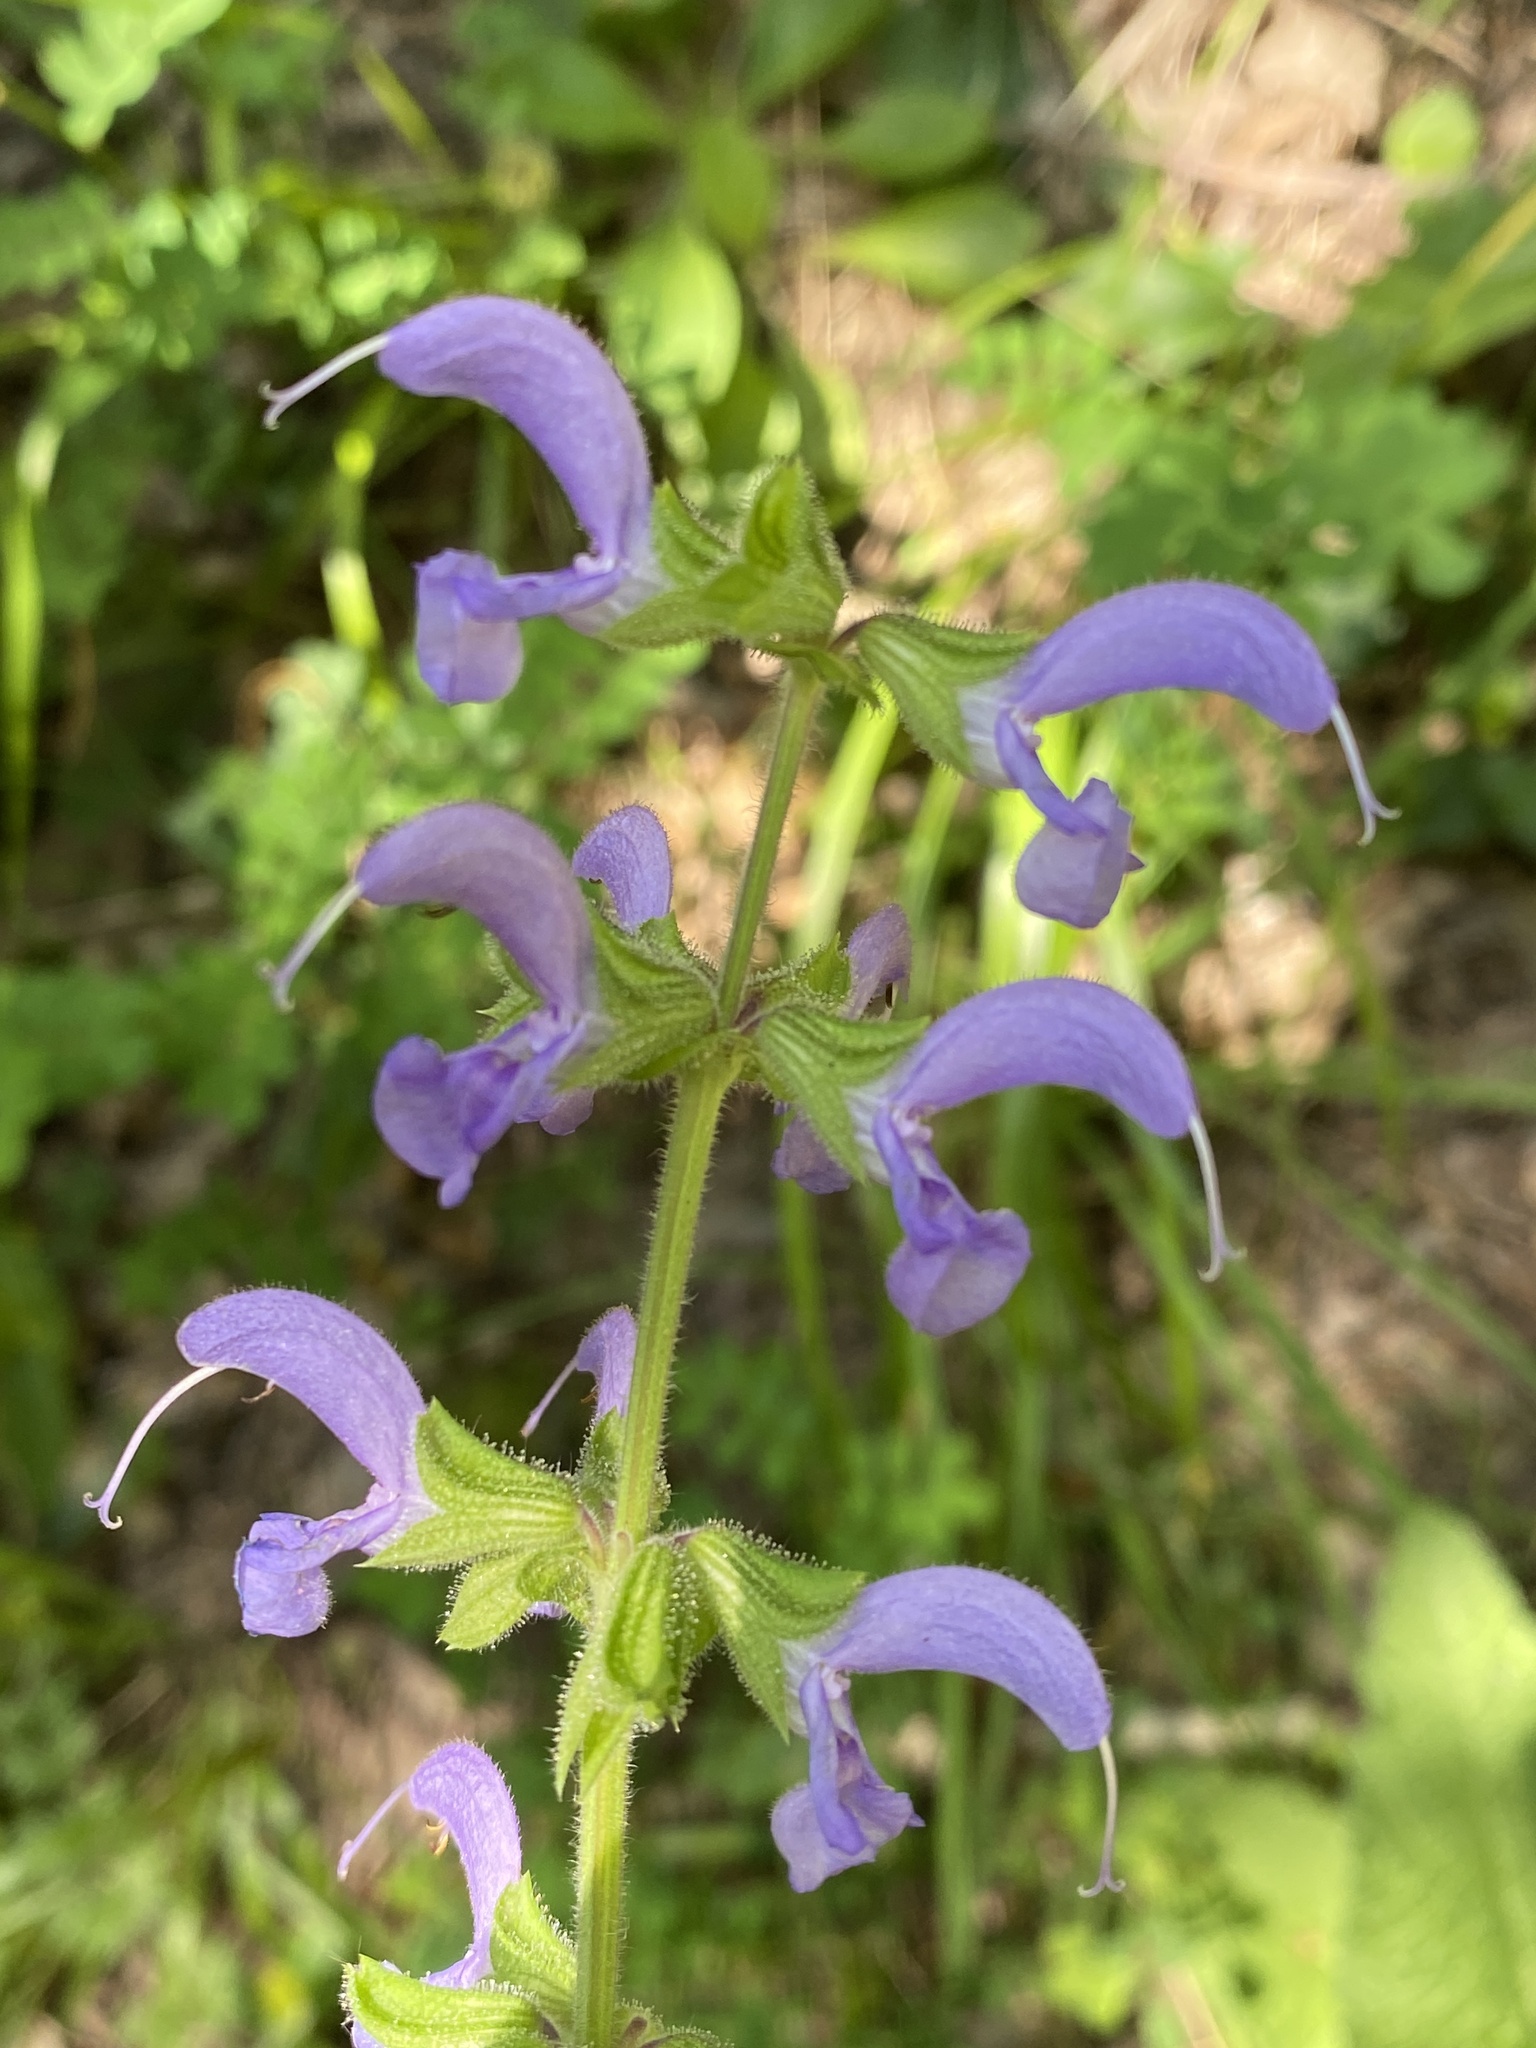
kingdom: Plantae
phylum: Tracheophyta
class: Magnoliopsida
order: Lamiales
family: Lamiaceae
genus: Salvia
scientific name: Salvia pratensis
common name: Meadow sage
